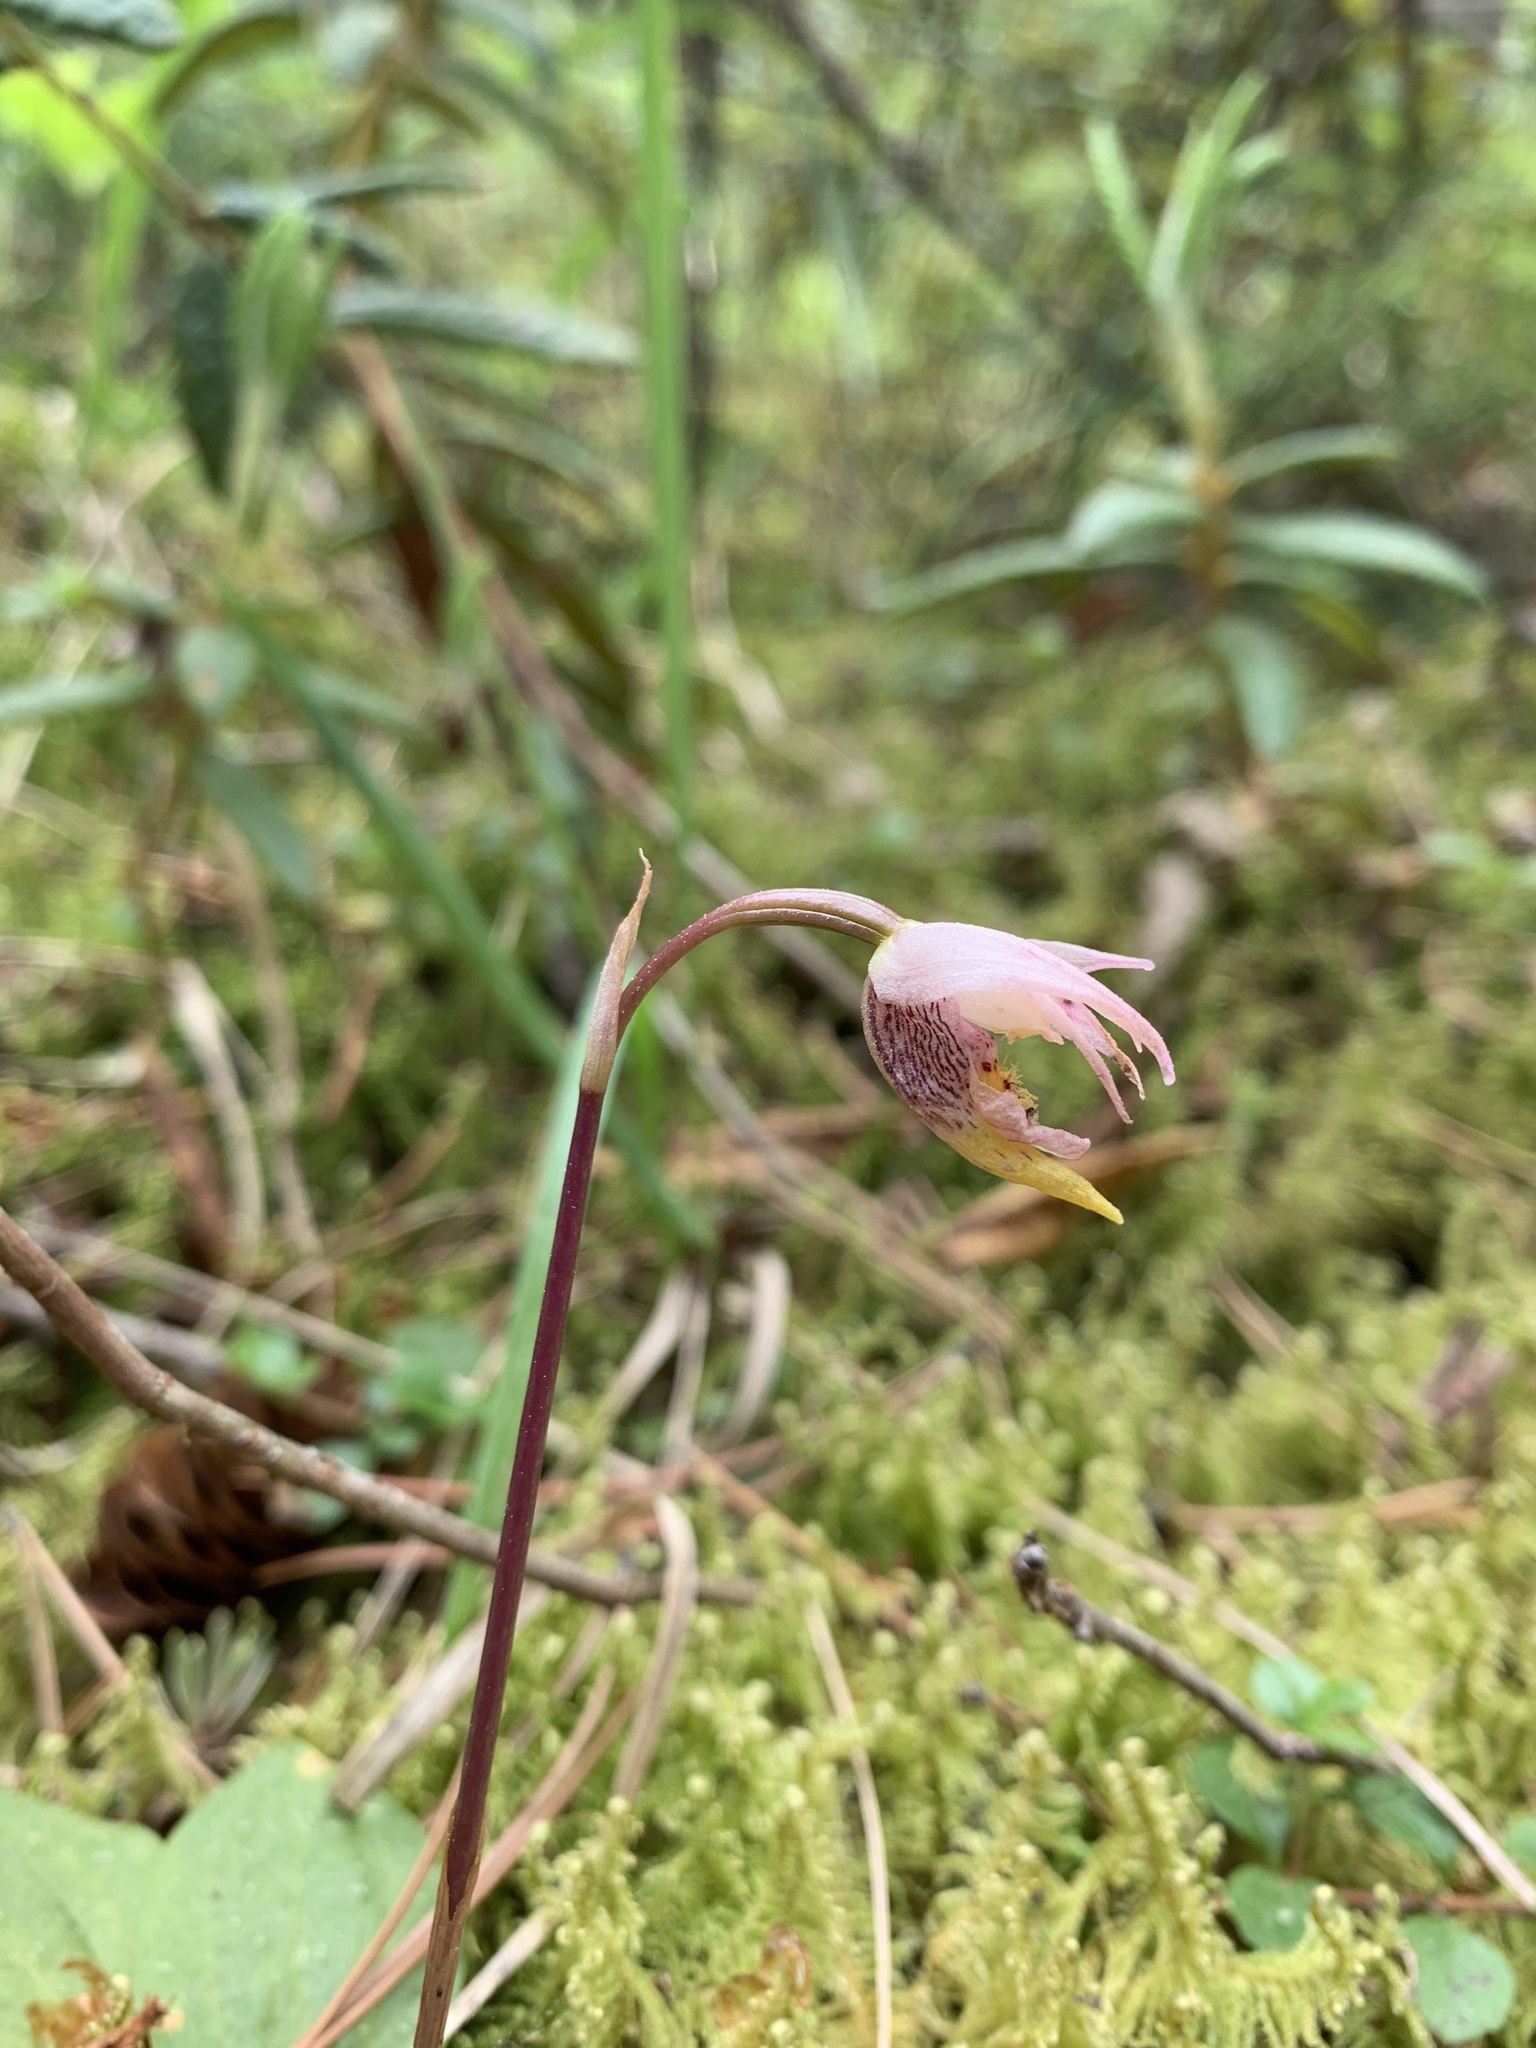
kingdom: Plantae
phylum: Tracheophyta
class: Liliopsida
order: Asparagales
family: Orchidaceae
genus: Calypso
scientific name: Calypso bulbosa
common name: Calypso
